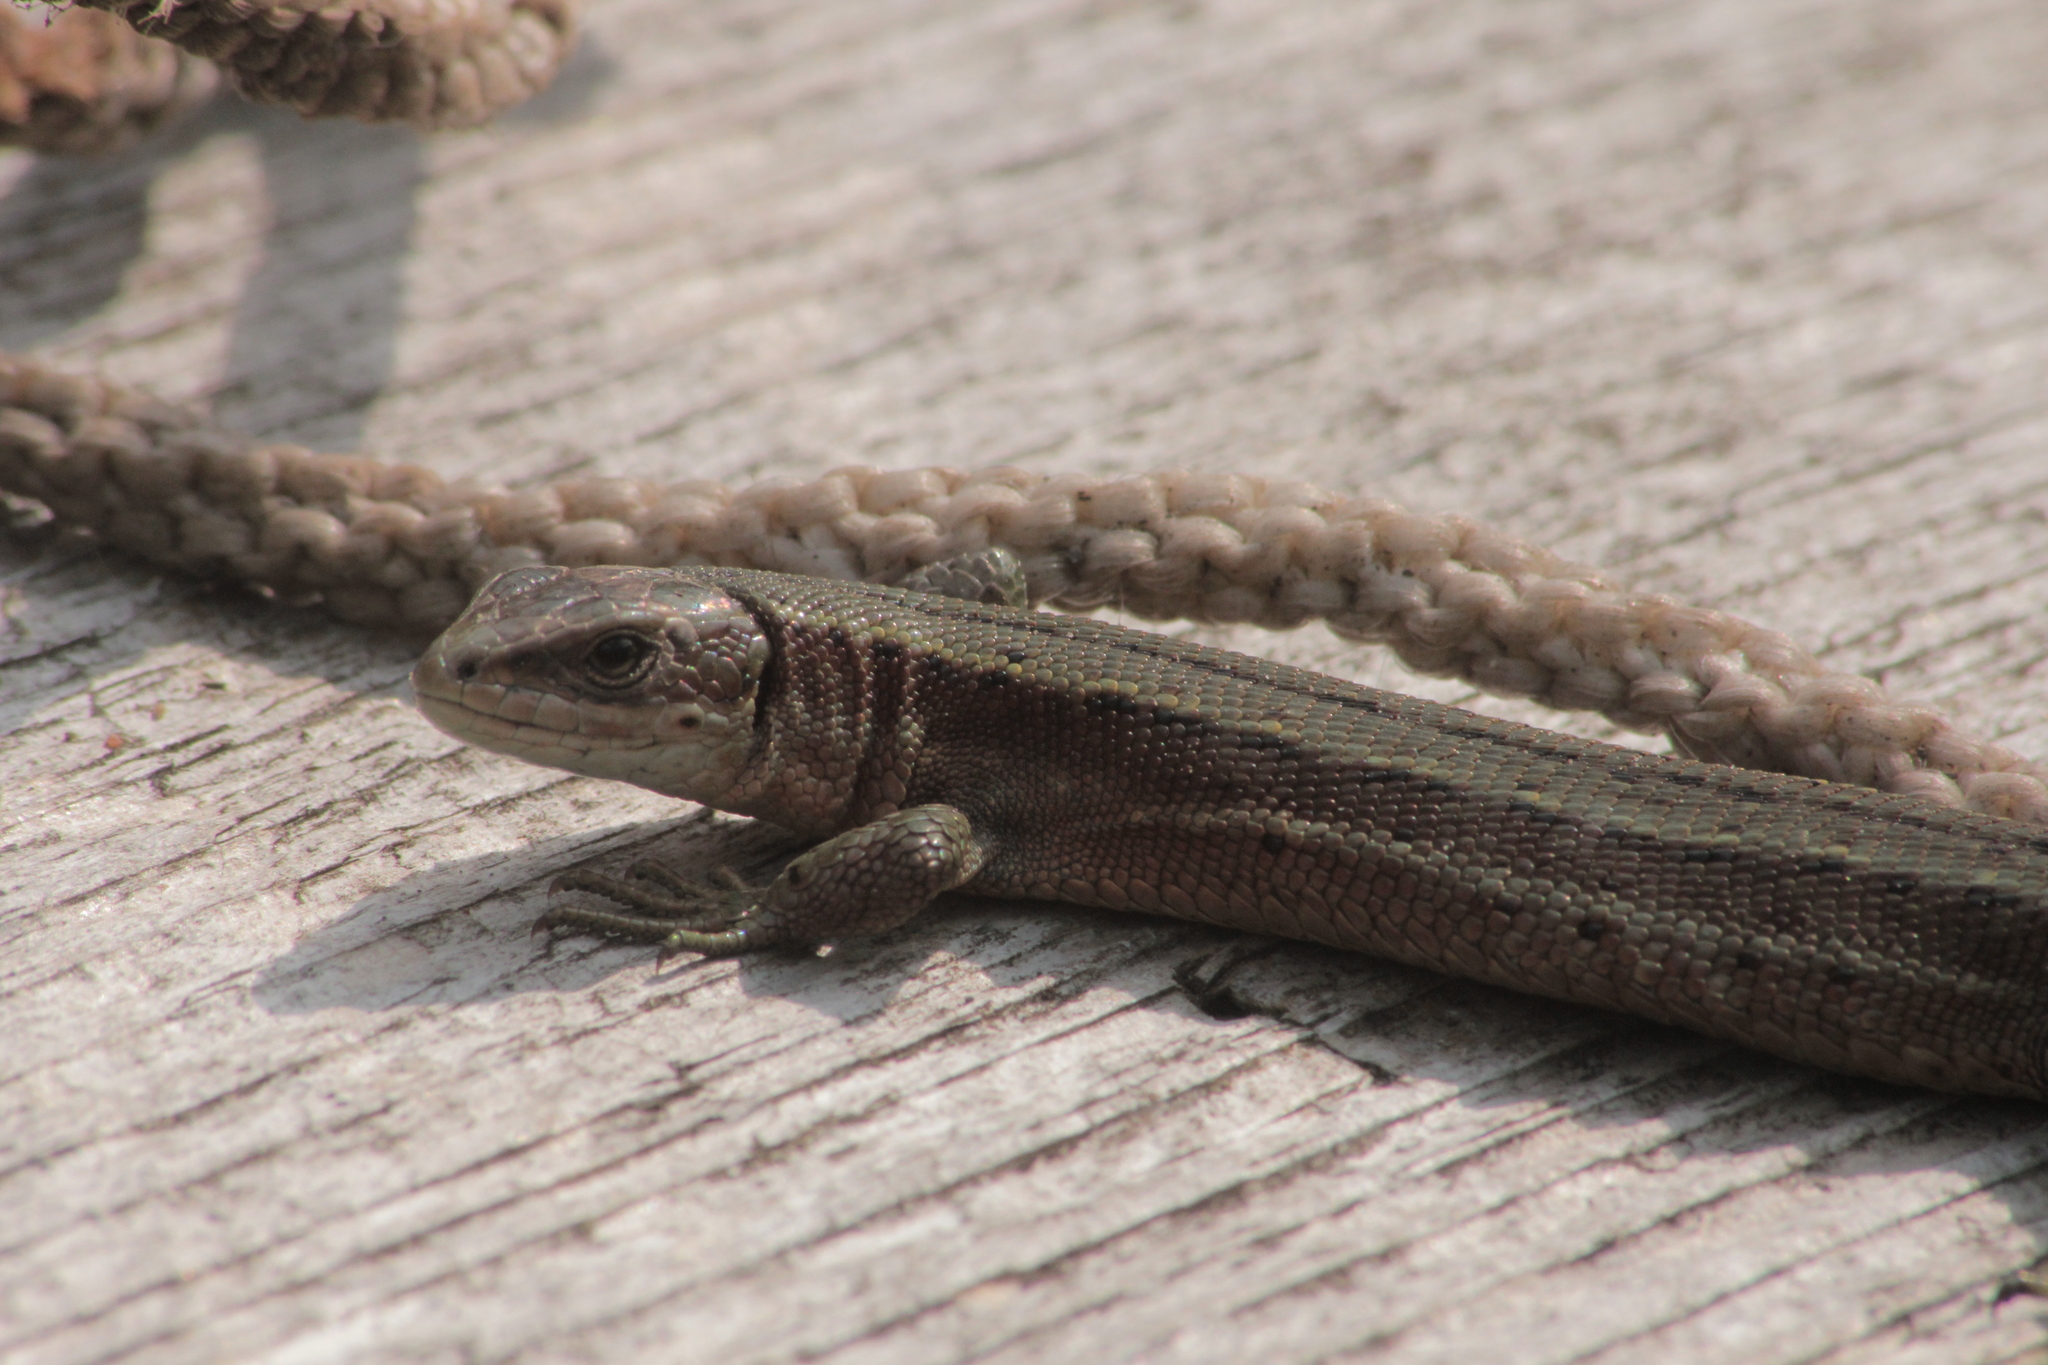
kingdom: Animalia
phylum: Chordata
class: Squamata
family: Lacertidae
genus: Zootoca
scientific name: Zootoca vivipara
